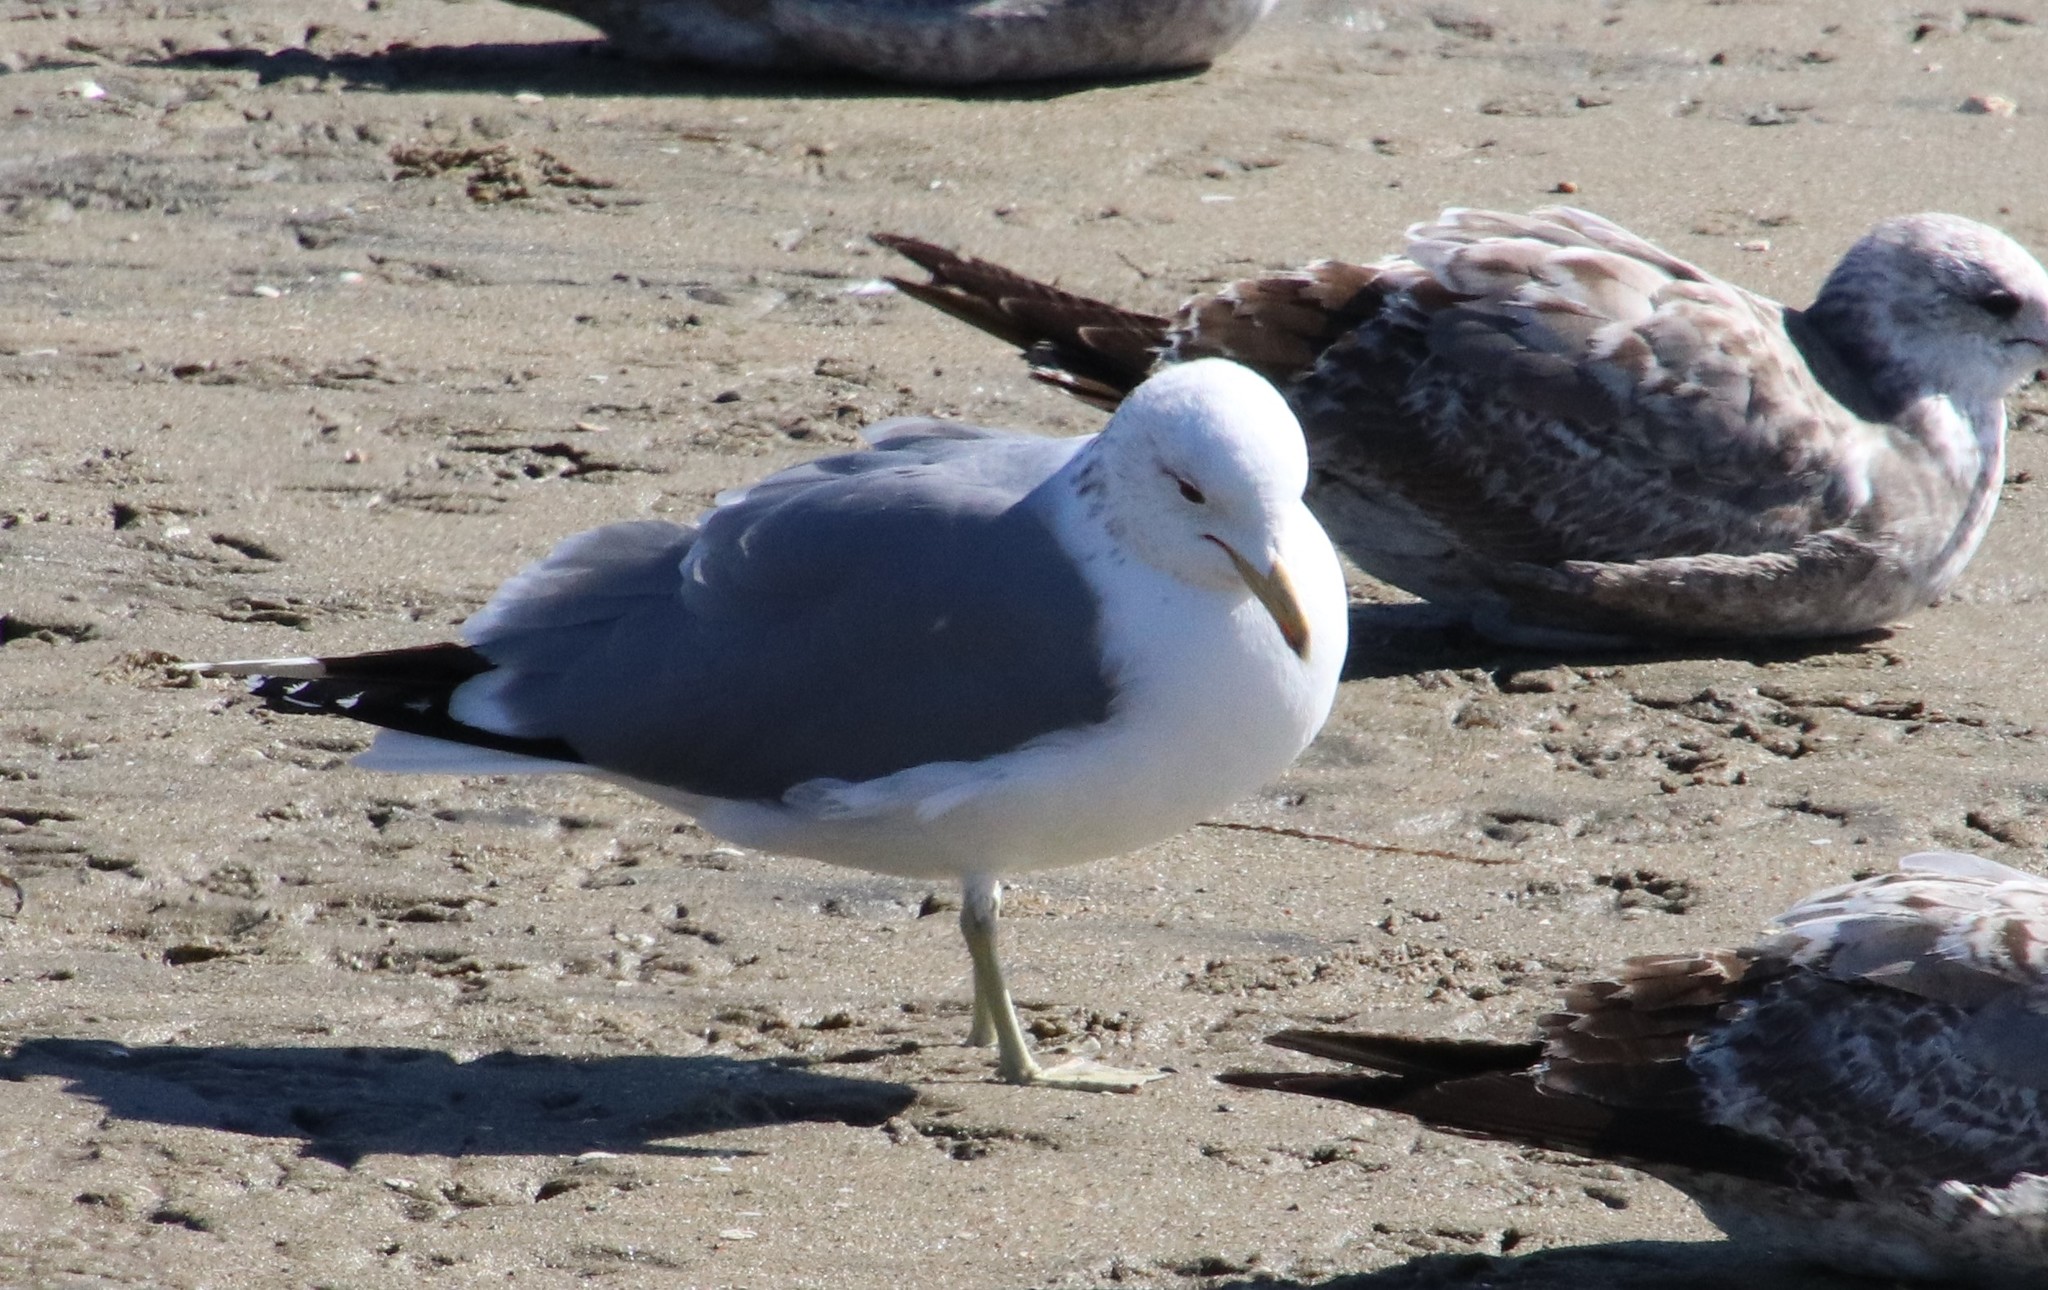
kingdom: Animalia
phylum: Chordata
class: Aves
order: Charadriiformes
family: Laridae
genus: Larus
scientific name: Larus californicus
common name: California gull
